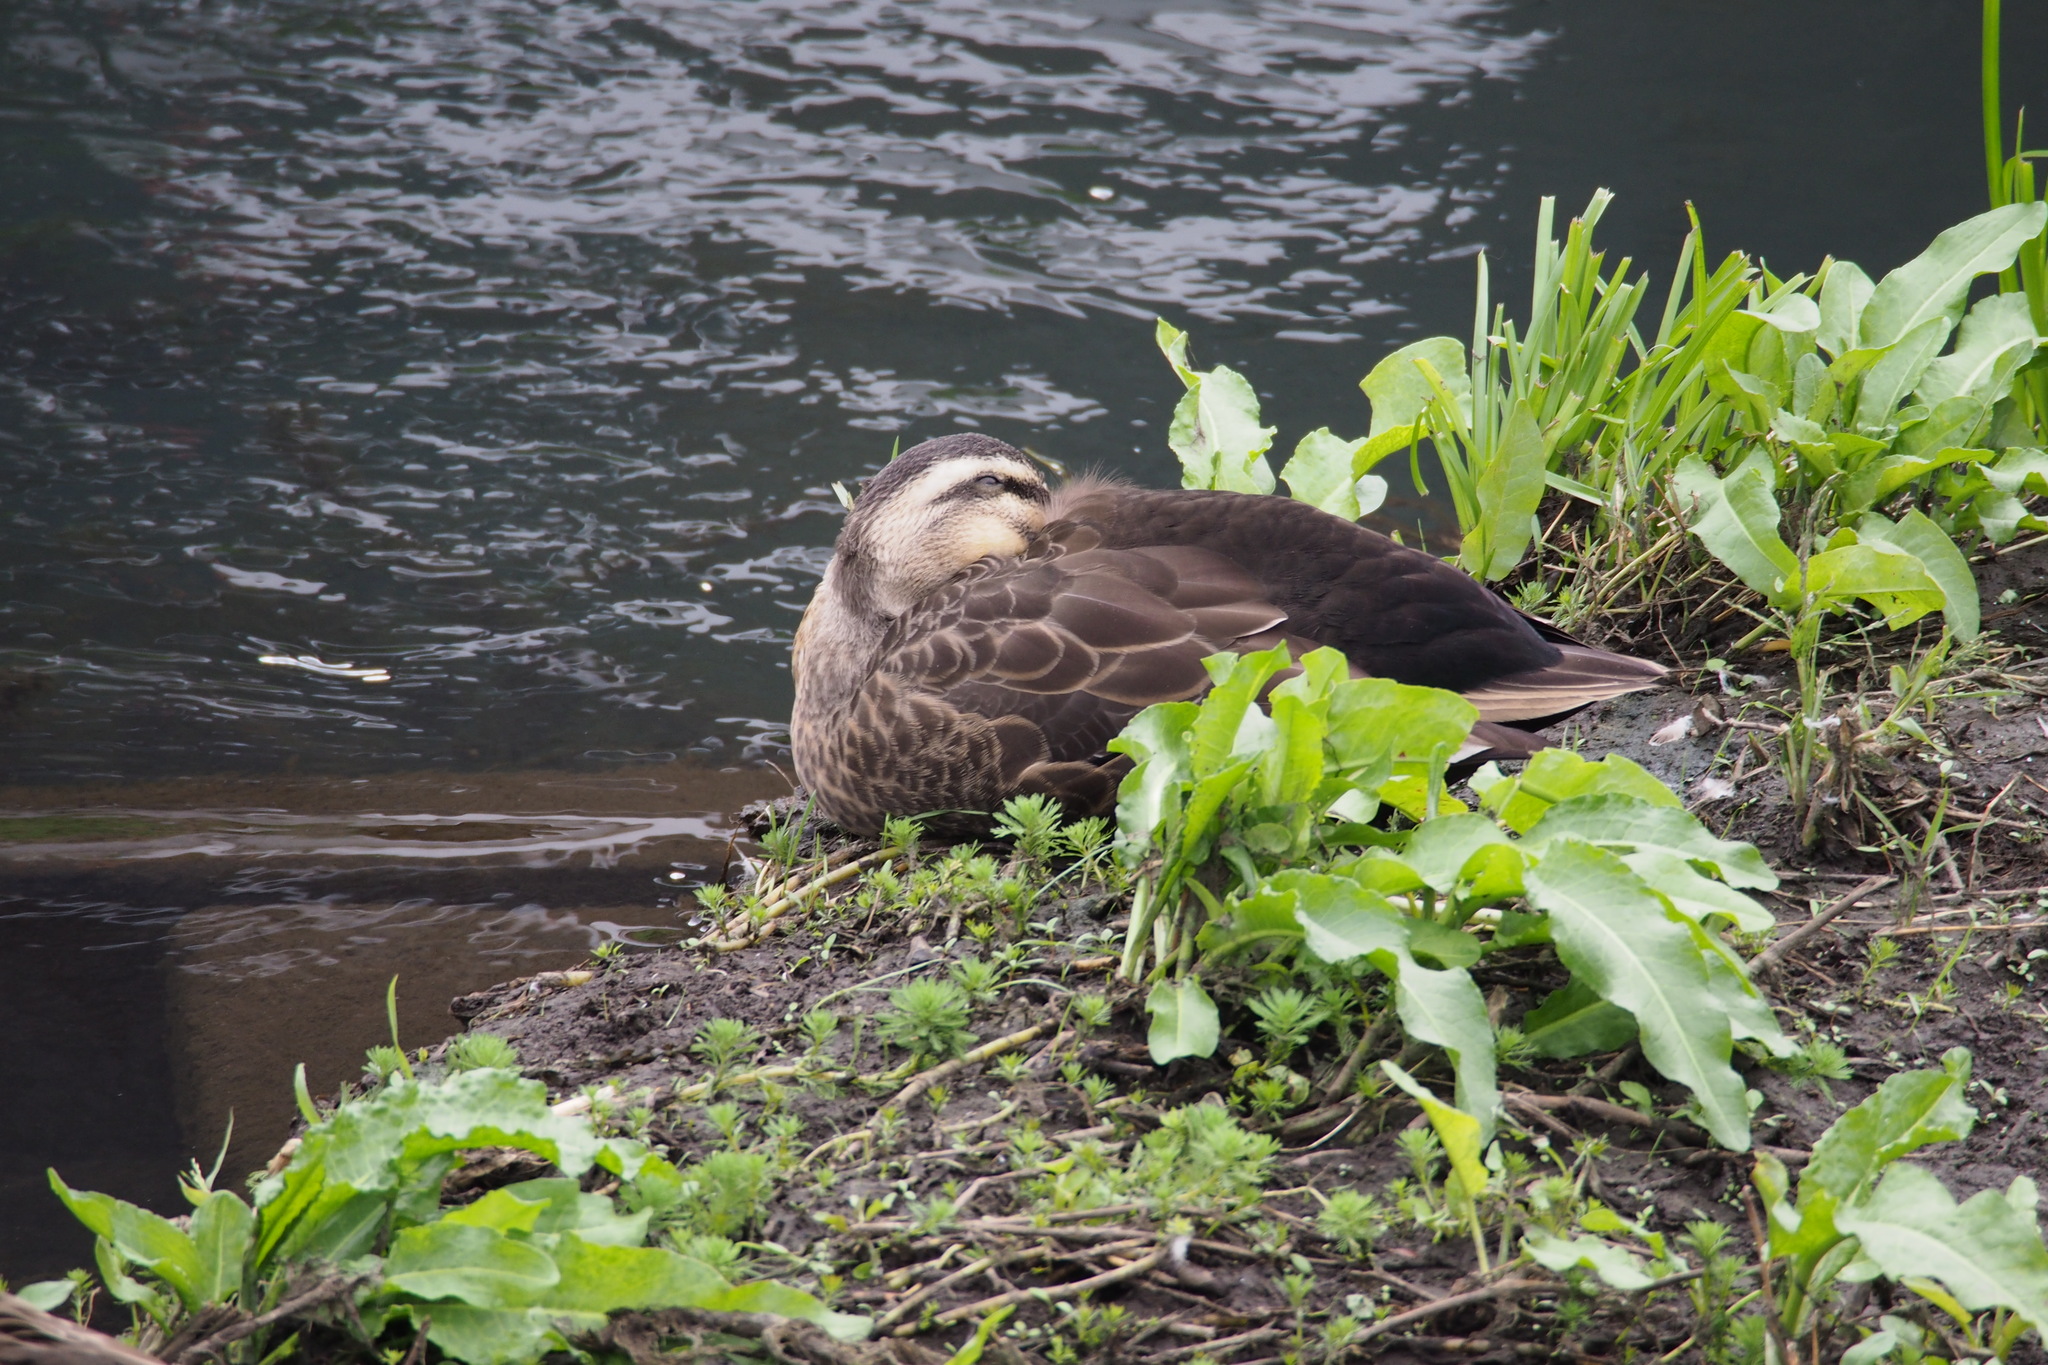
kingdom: Animalia
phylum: Chordata
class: Aves
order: Anseriformes
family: Anatidae
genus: Anas
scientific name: Anas zonorhyncha
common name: Eastern spot-billed duck
